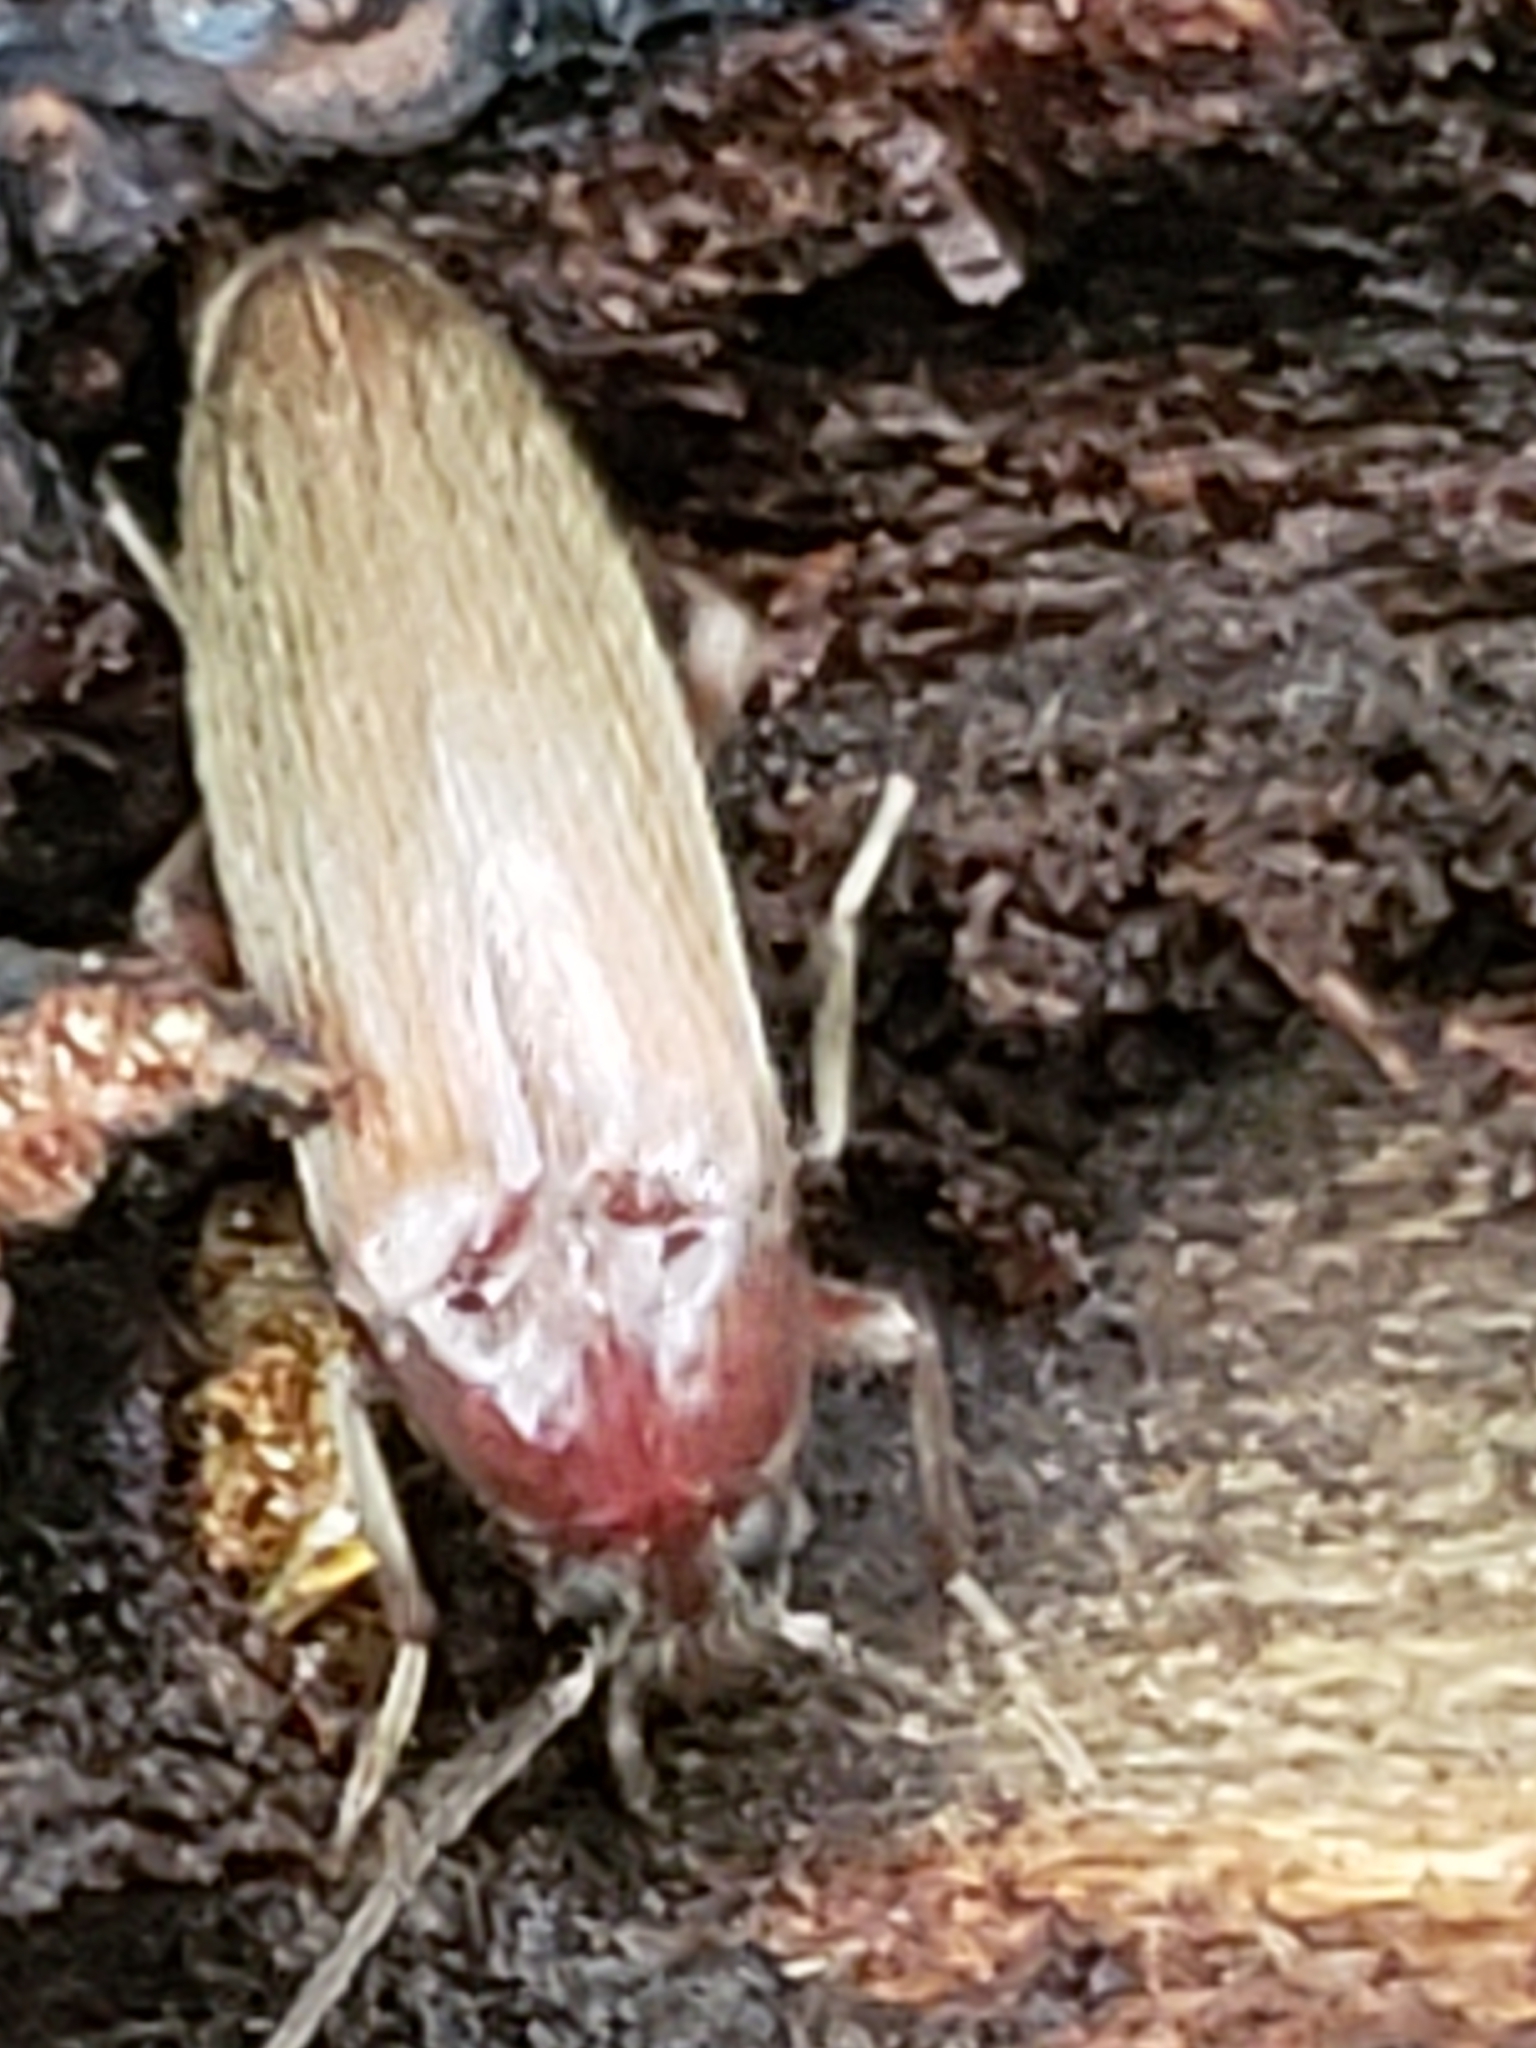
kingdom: Animalia
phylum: Arthropoda
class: Insecta
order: Coleoptera
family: Synchroidae
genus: Synchroa
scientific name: Synchroa punctata
